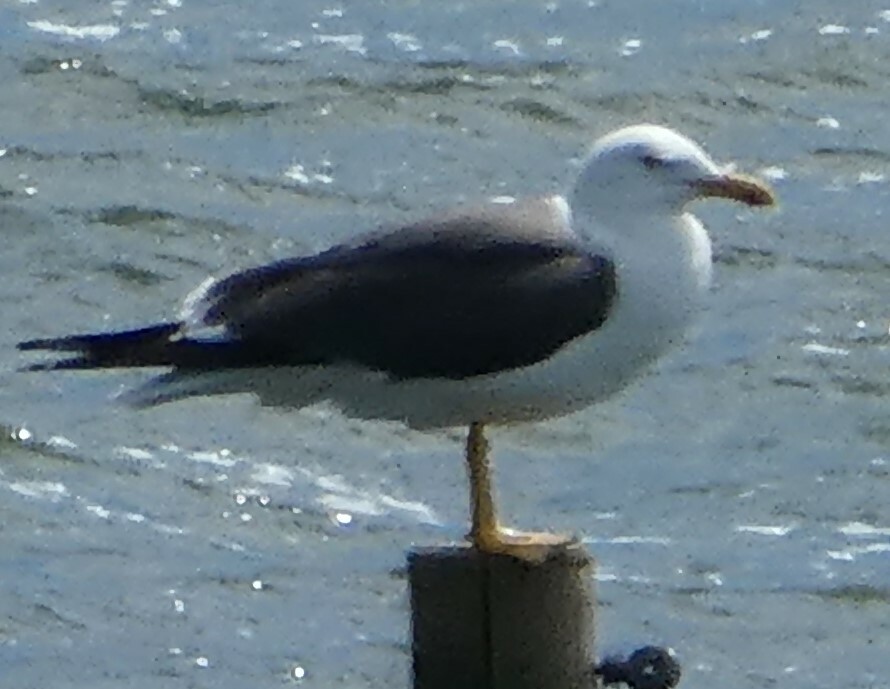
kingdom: Animalia
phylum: Chordata
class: Aves
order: Charadriiformes
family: Laridae
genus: Larus
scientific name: Larus fuscus
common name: Lesser black-backed gull
